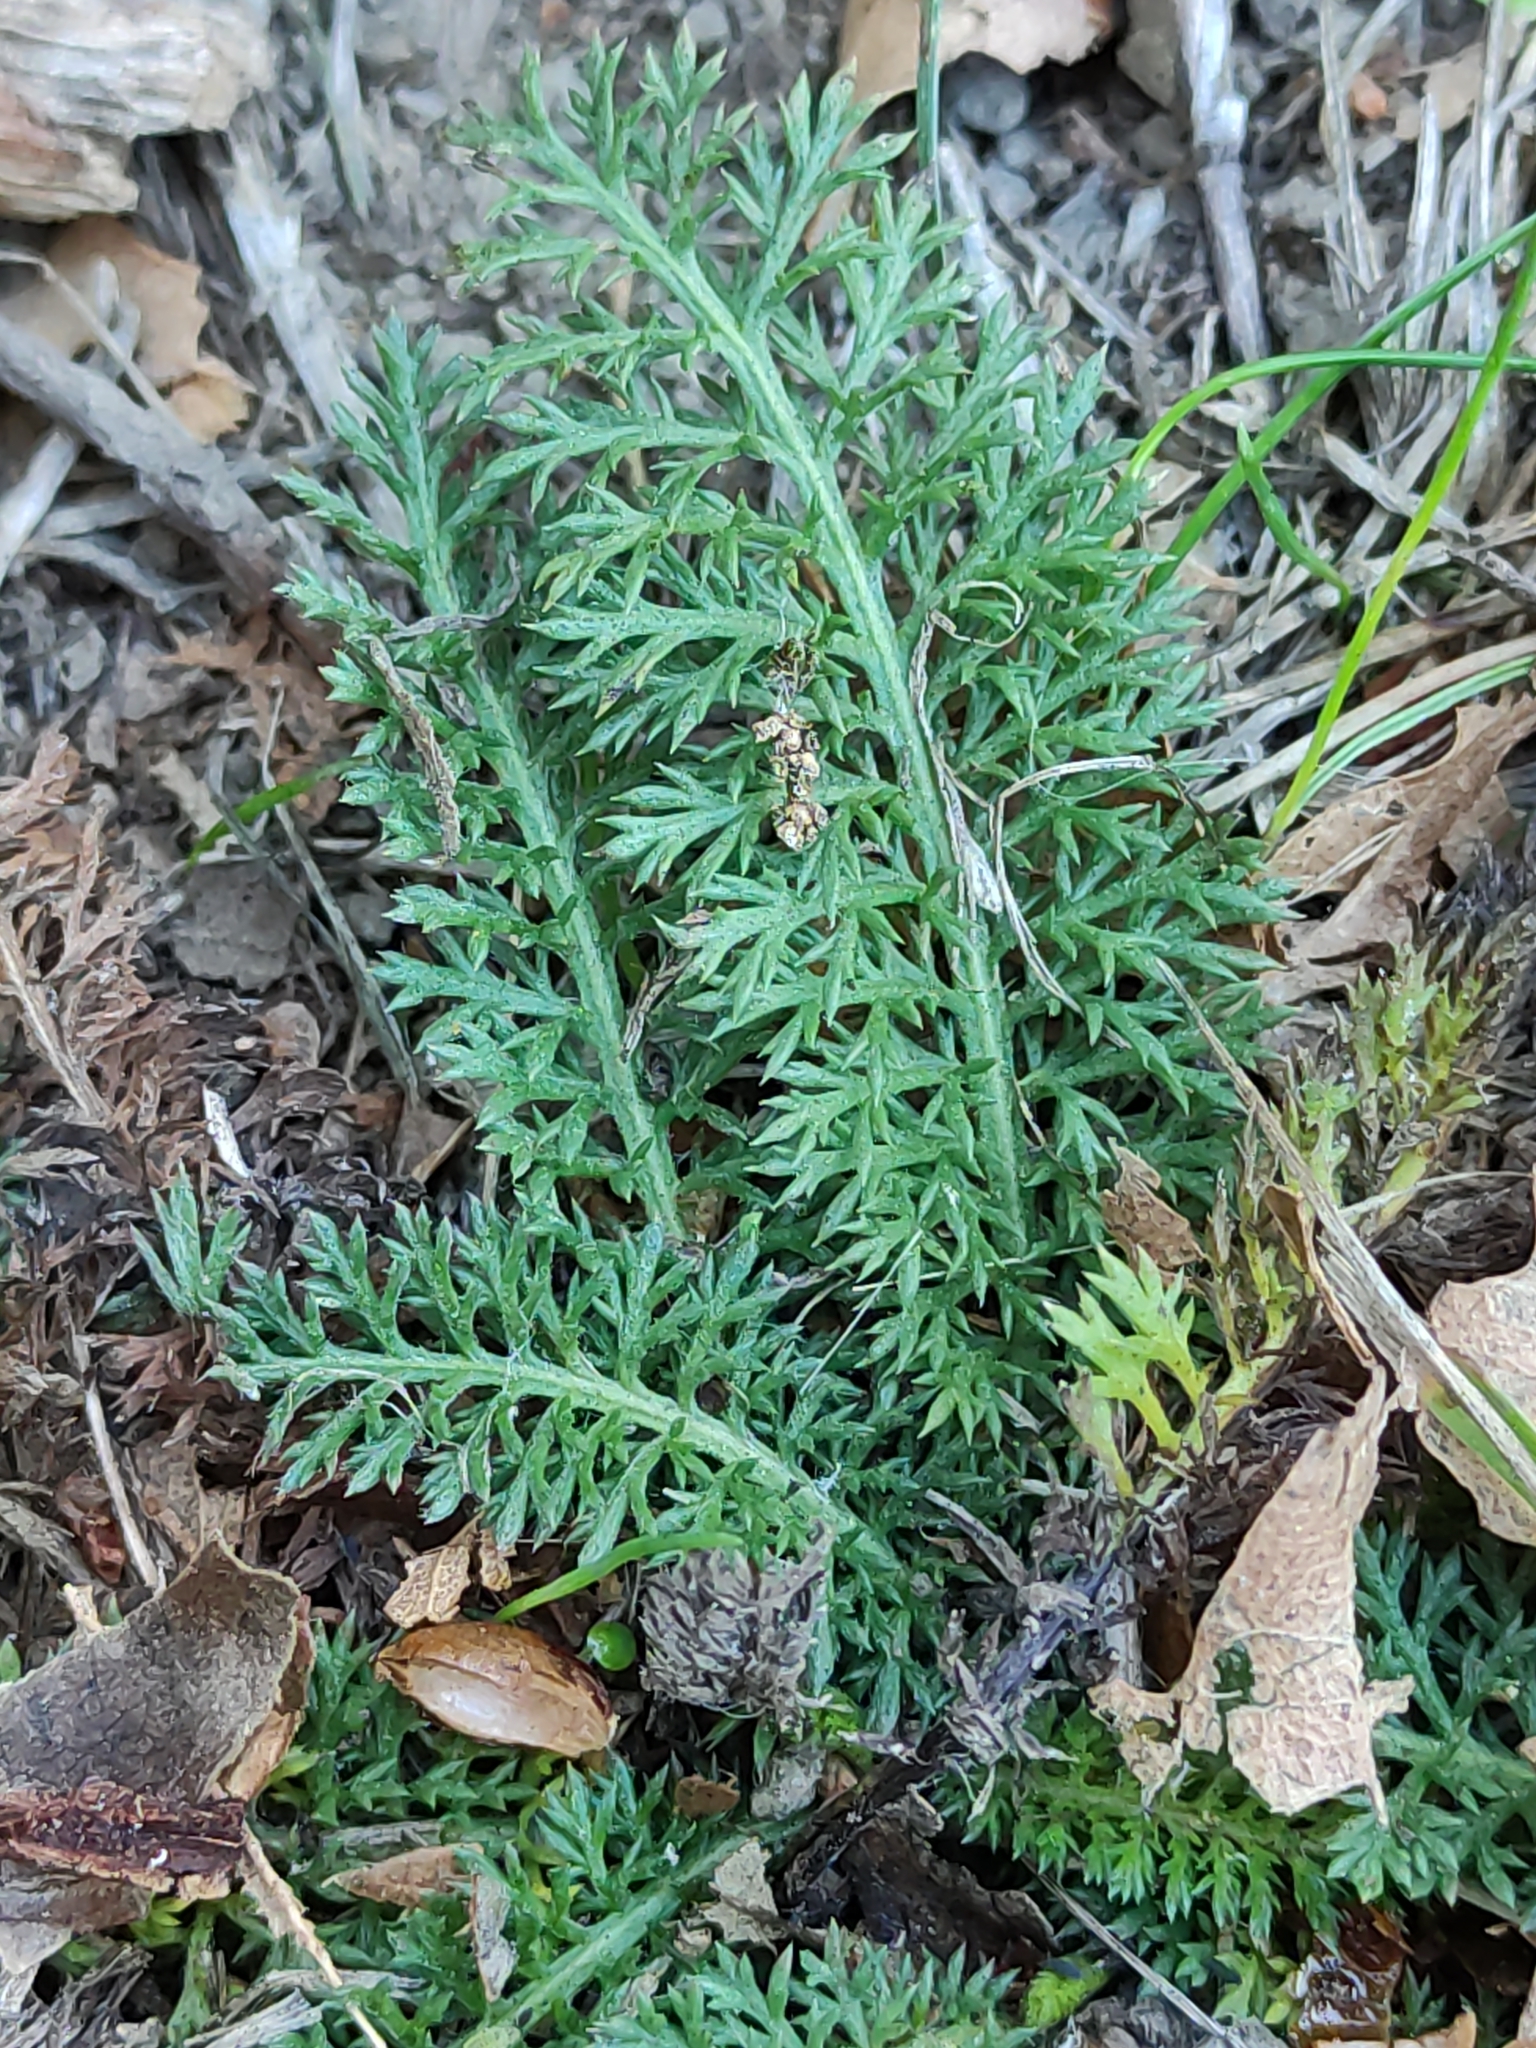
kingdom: Plantae
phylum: Tracheophyta
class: Magnoliopsida
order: Asterales
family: Asteraceae
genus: Achillea
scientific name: Achillea millefolium
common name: Yarrow
